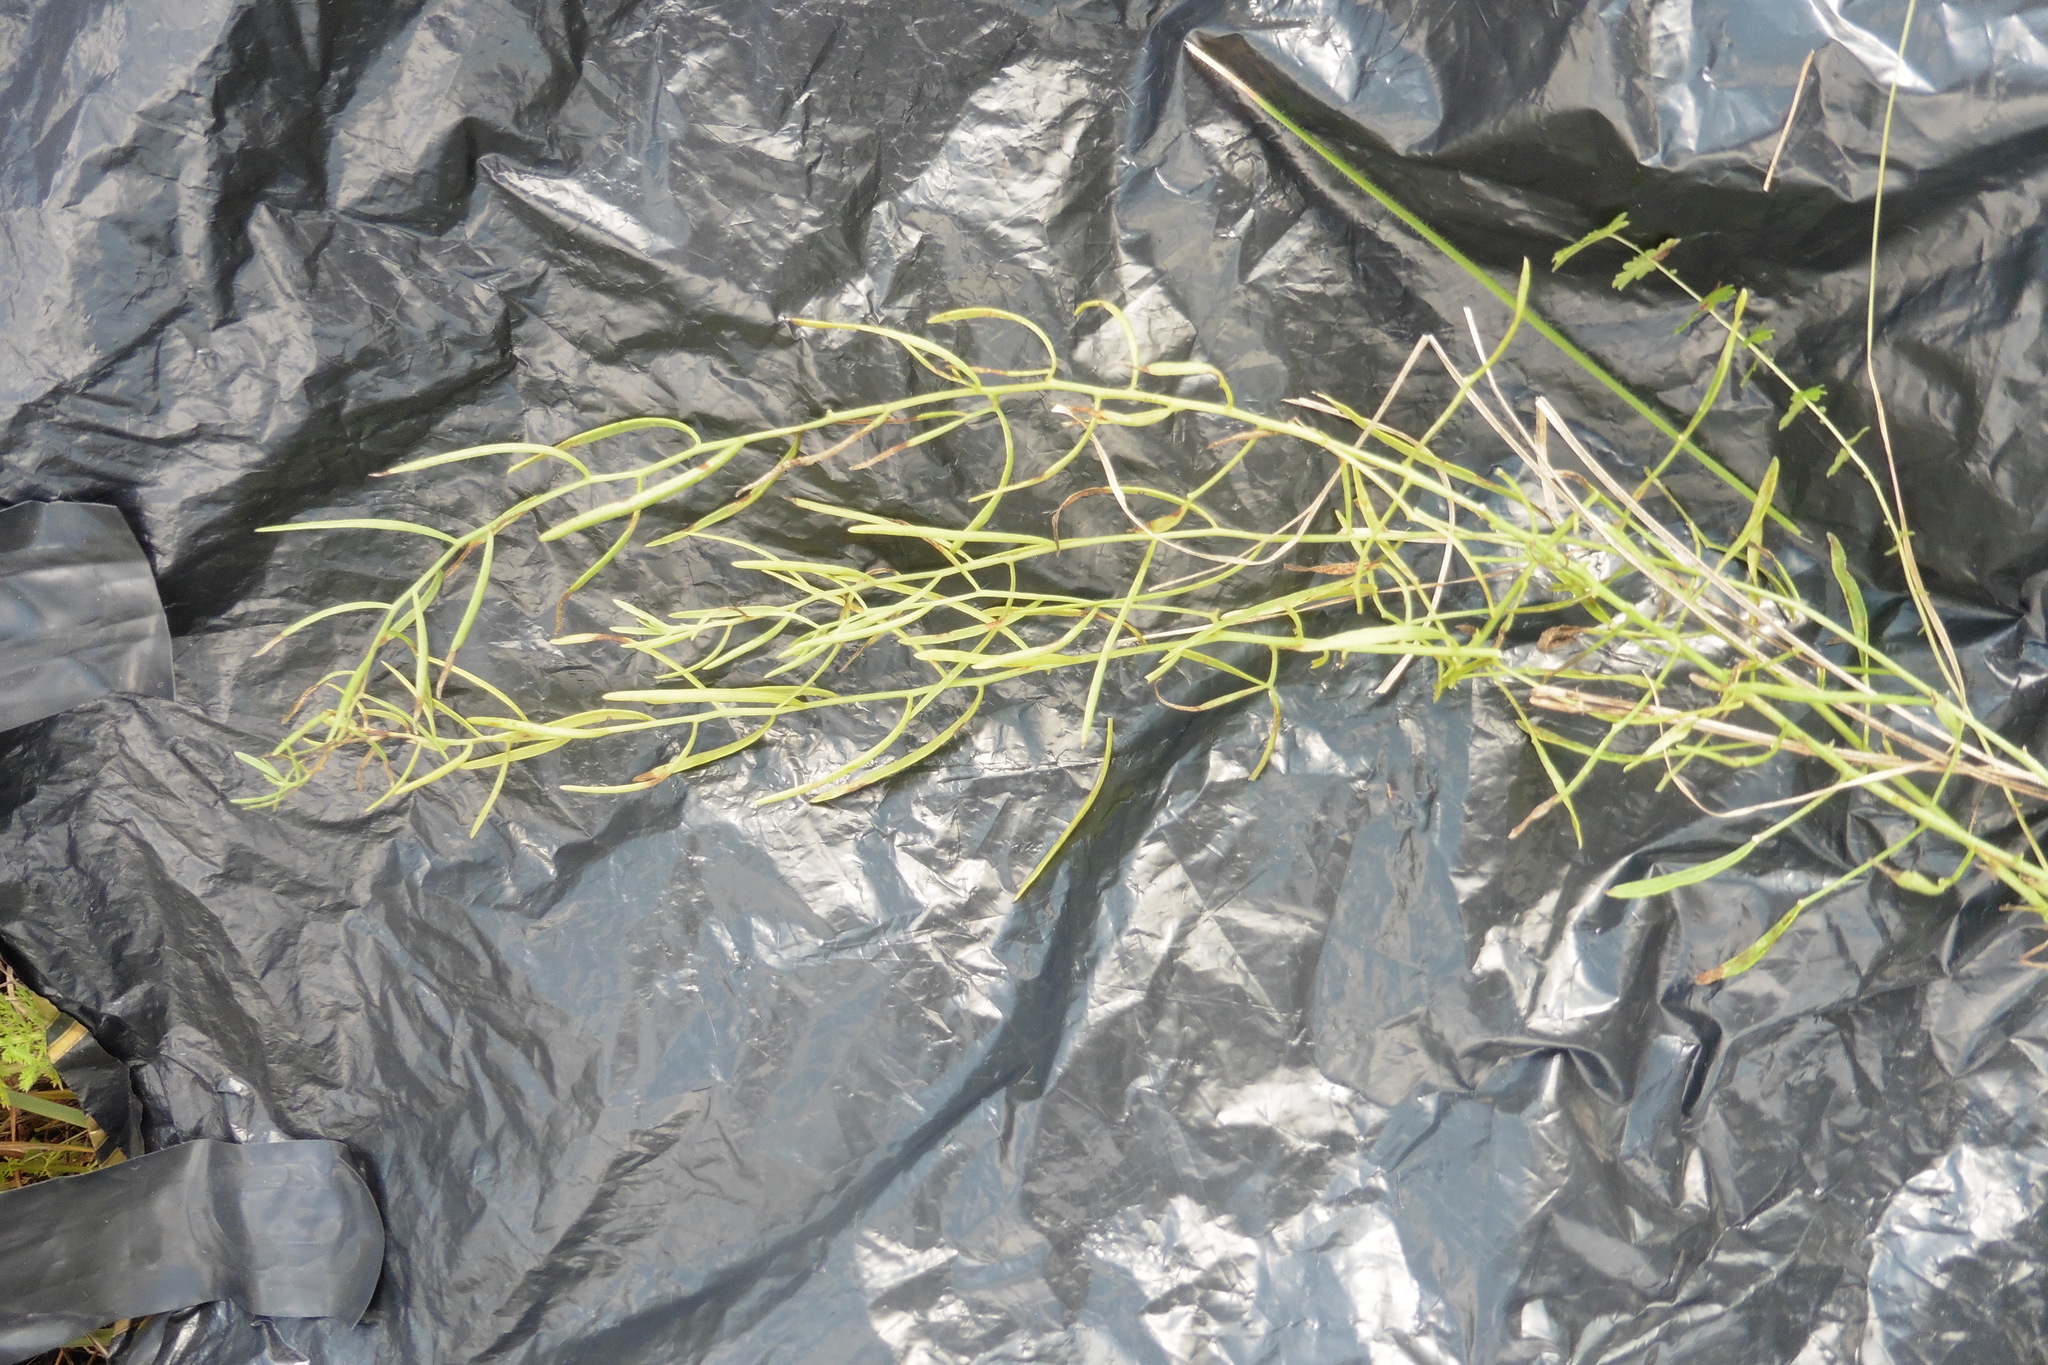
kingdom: Plantae
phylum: Tracheophyta
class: Magnoliopsida
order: Santalales
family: Thesiaceae
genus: Thesium
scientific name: Thesium ebracteatum
